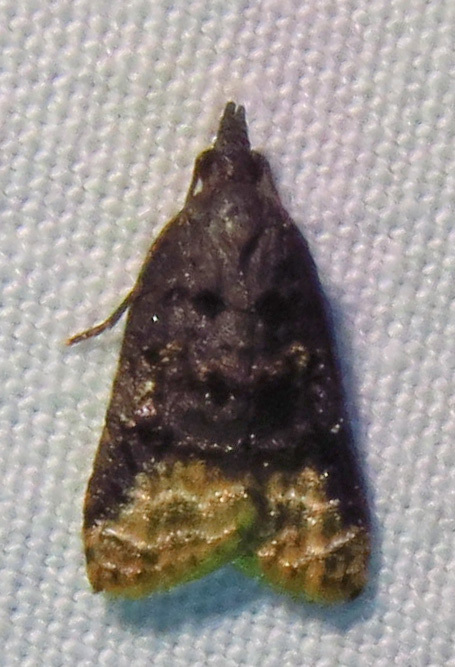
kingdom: Animalia
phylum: Arthropoda
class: Insecta
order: Lepidoptera
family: Tortricidae
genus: Platynota
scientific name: Platynota semiustana
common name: Singed platynota
